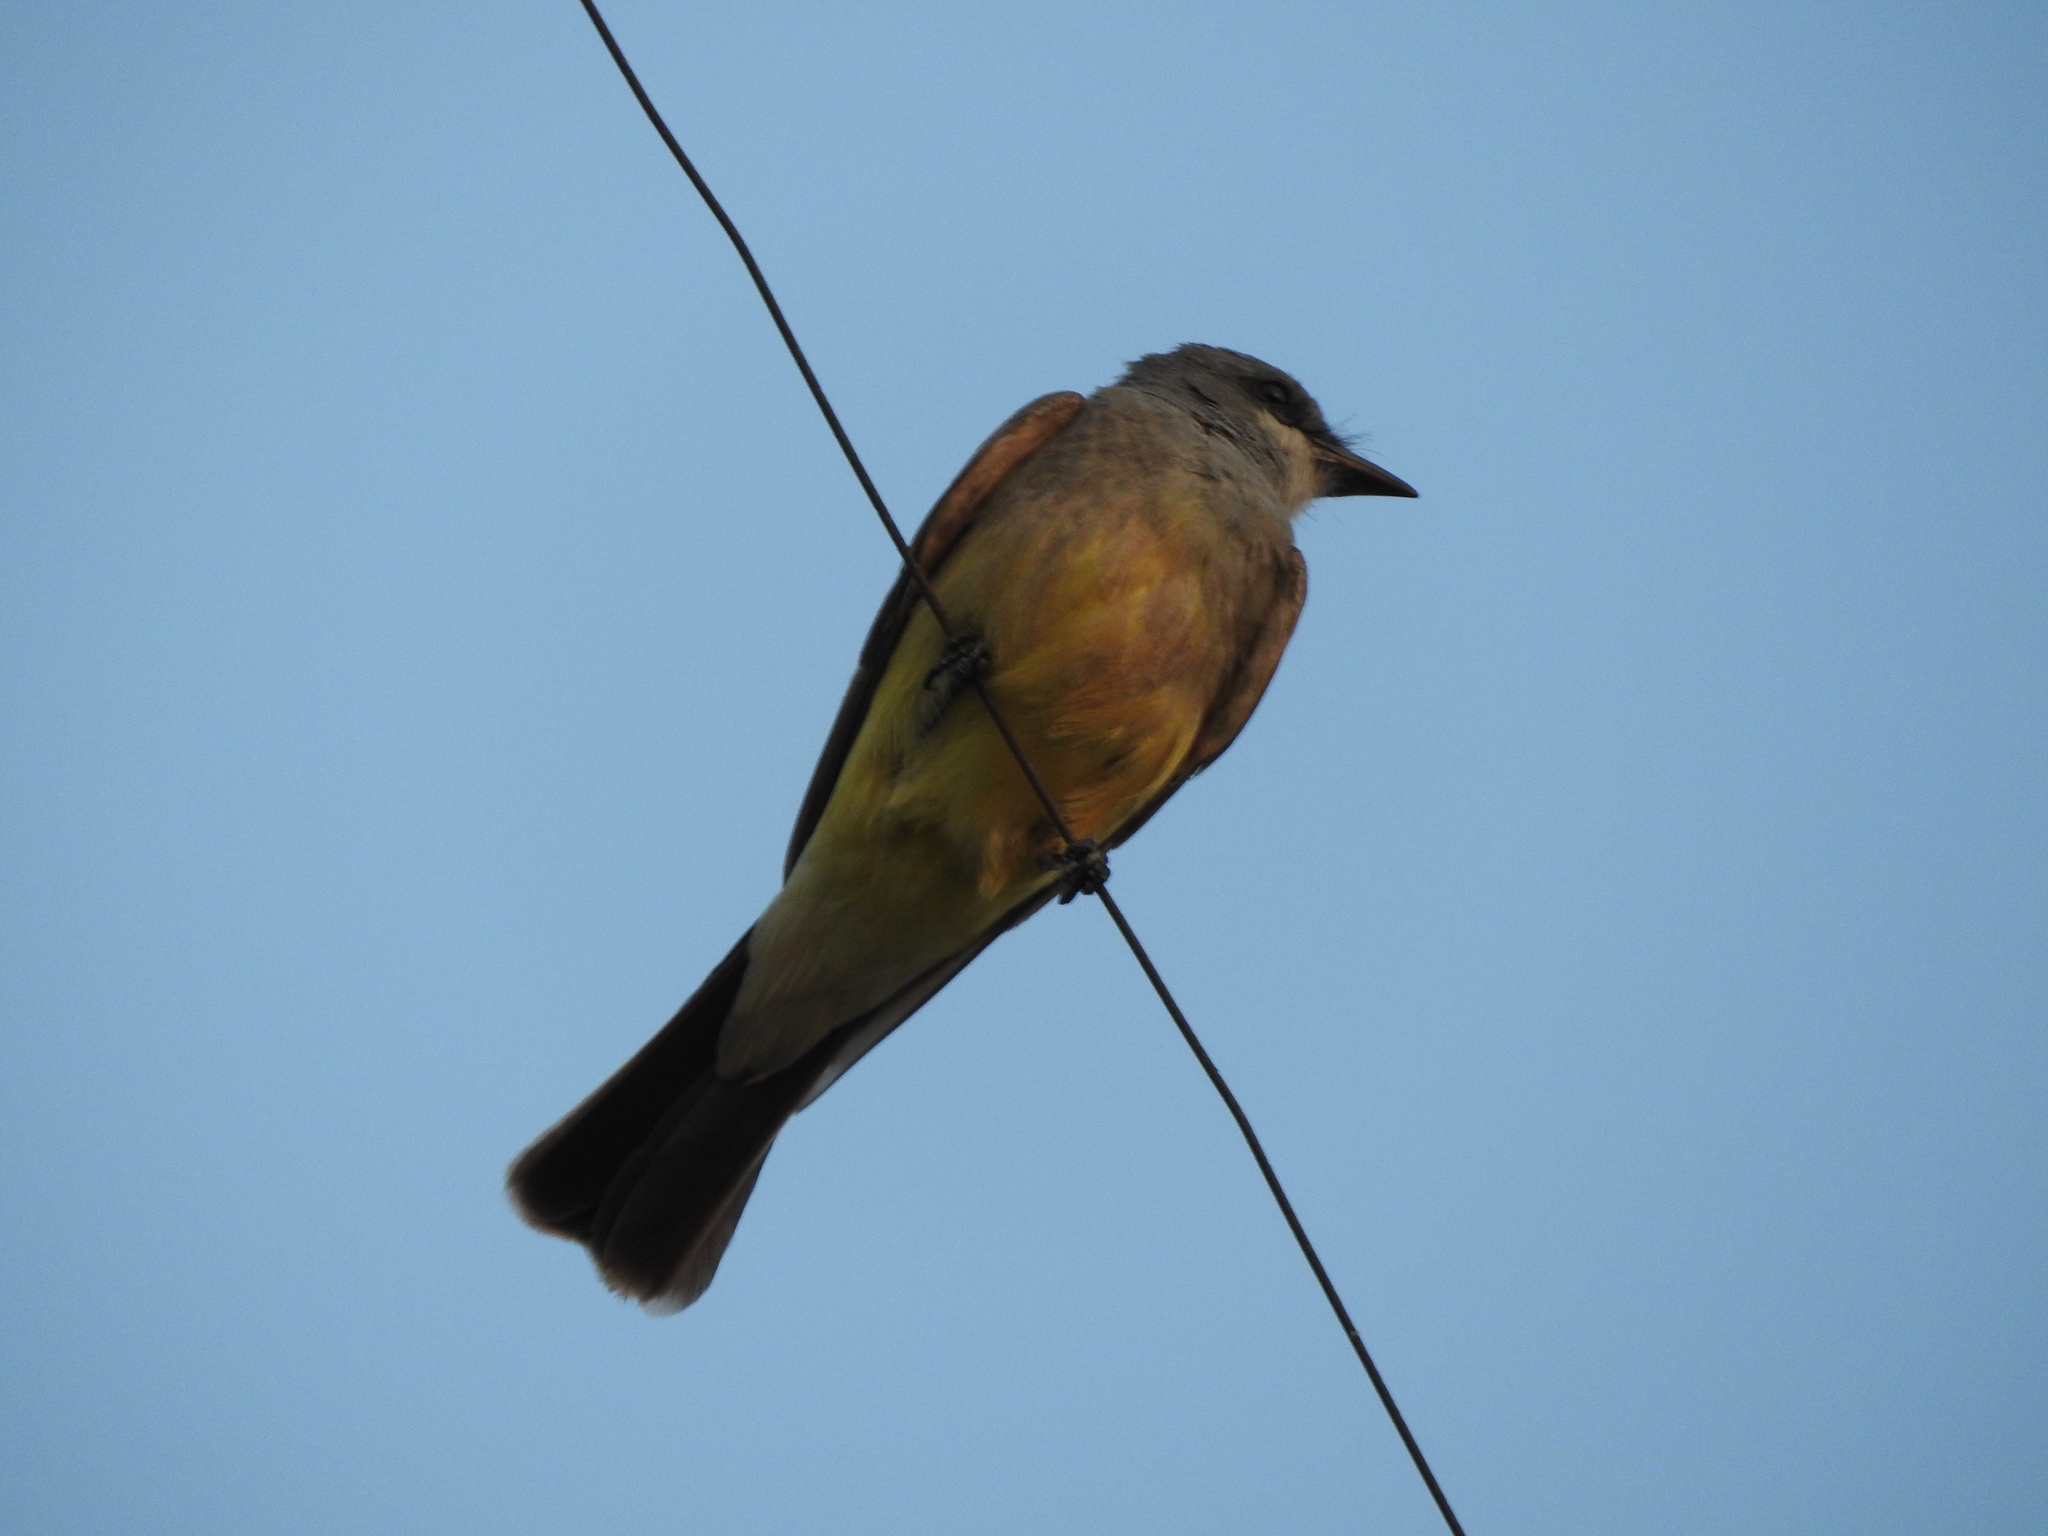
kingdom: Animalia
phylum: Chordata
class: Aves
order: Passeriformes
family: Tyrannidae
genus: Tyrannus
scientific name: Tyrannus vociferans
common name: Cassin's kingbird
